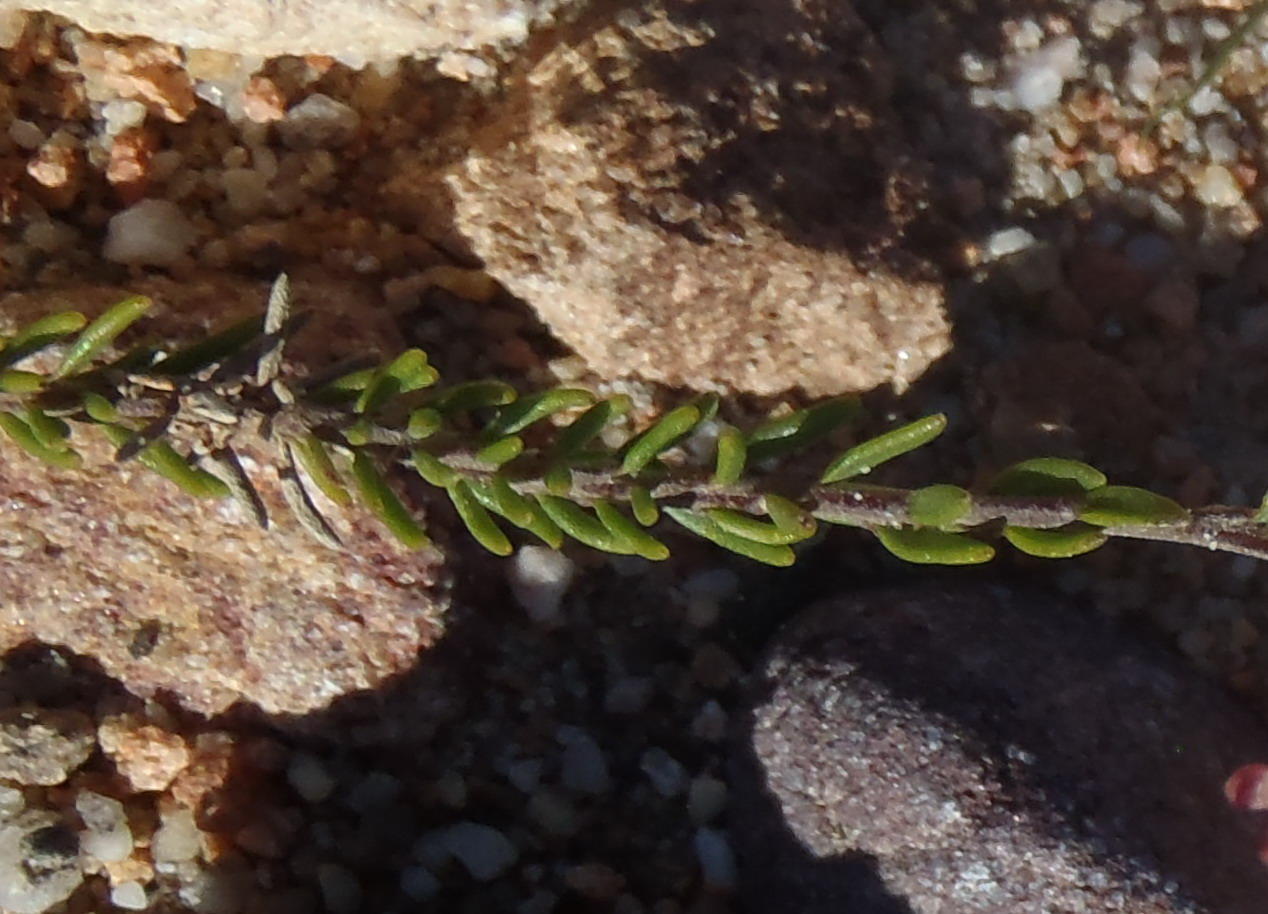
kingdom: Plantae
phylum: Tracheophyta
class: Magnoliopsida
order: Lamiales
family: Scrophulariaceae
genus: Microdon
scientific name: Microdon dubius
